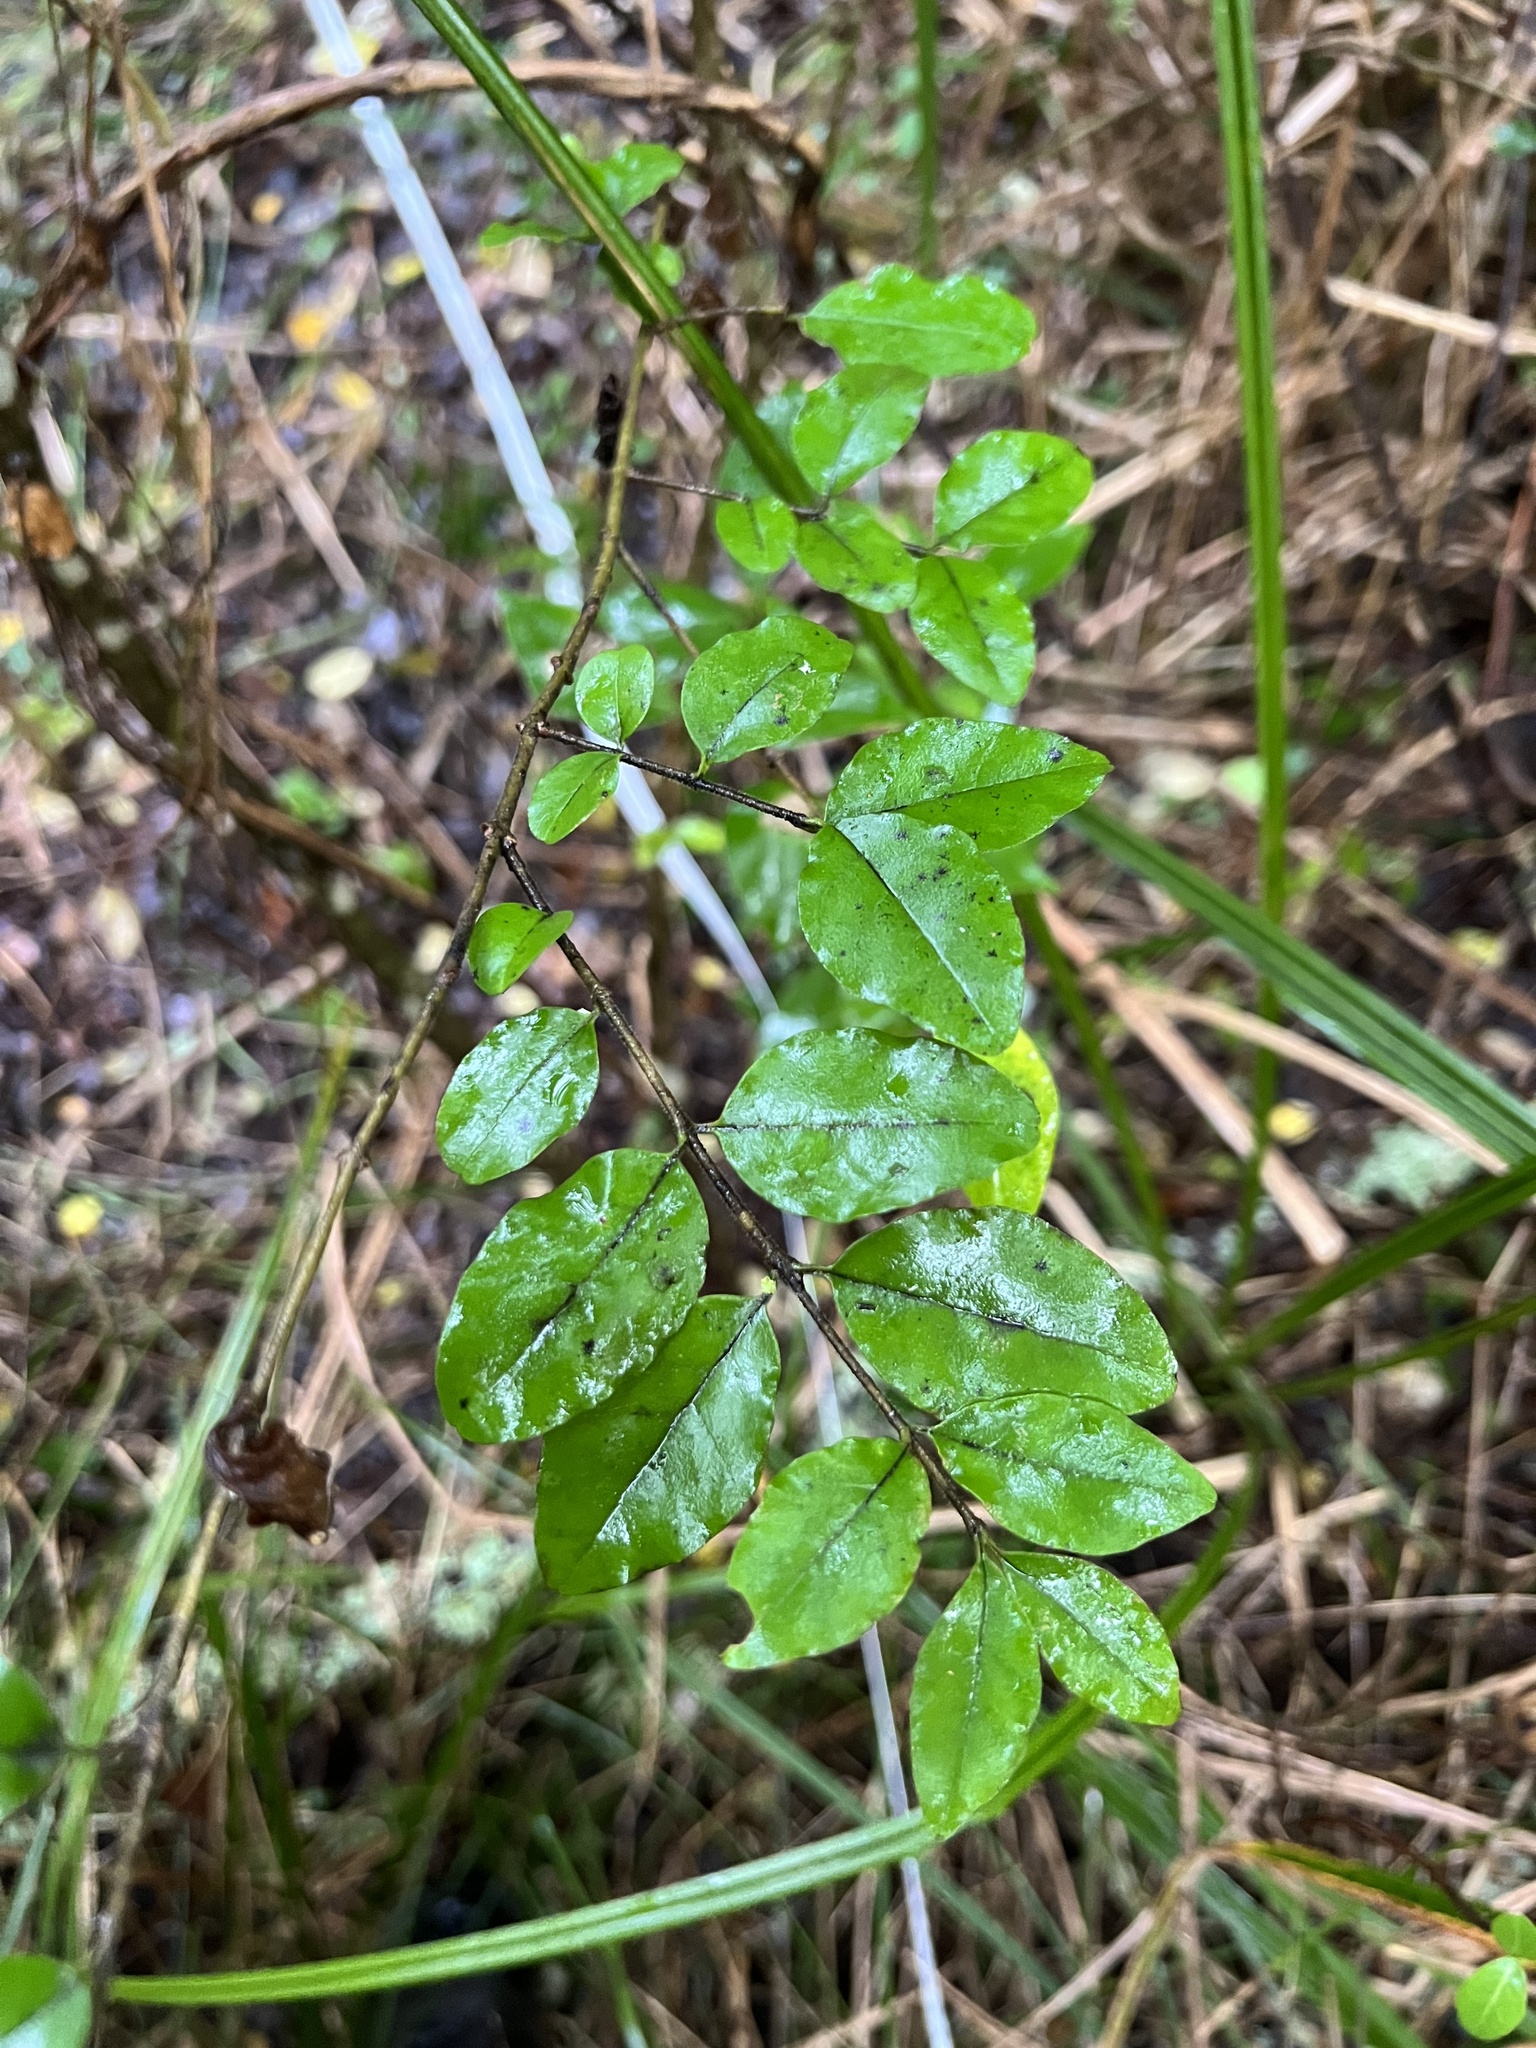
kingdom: Plantae
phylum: Tracheophyta
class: Magnoliopsida
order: Lamiales
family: Oleaceae
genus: Ligustrum
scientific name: Ligustrum sinense
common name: Chinese privet
